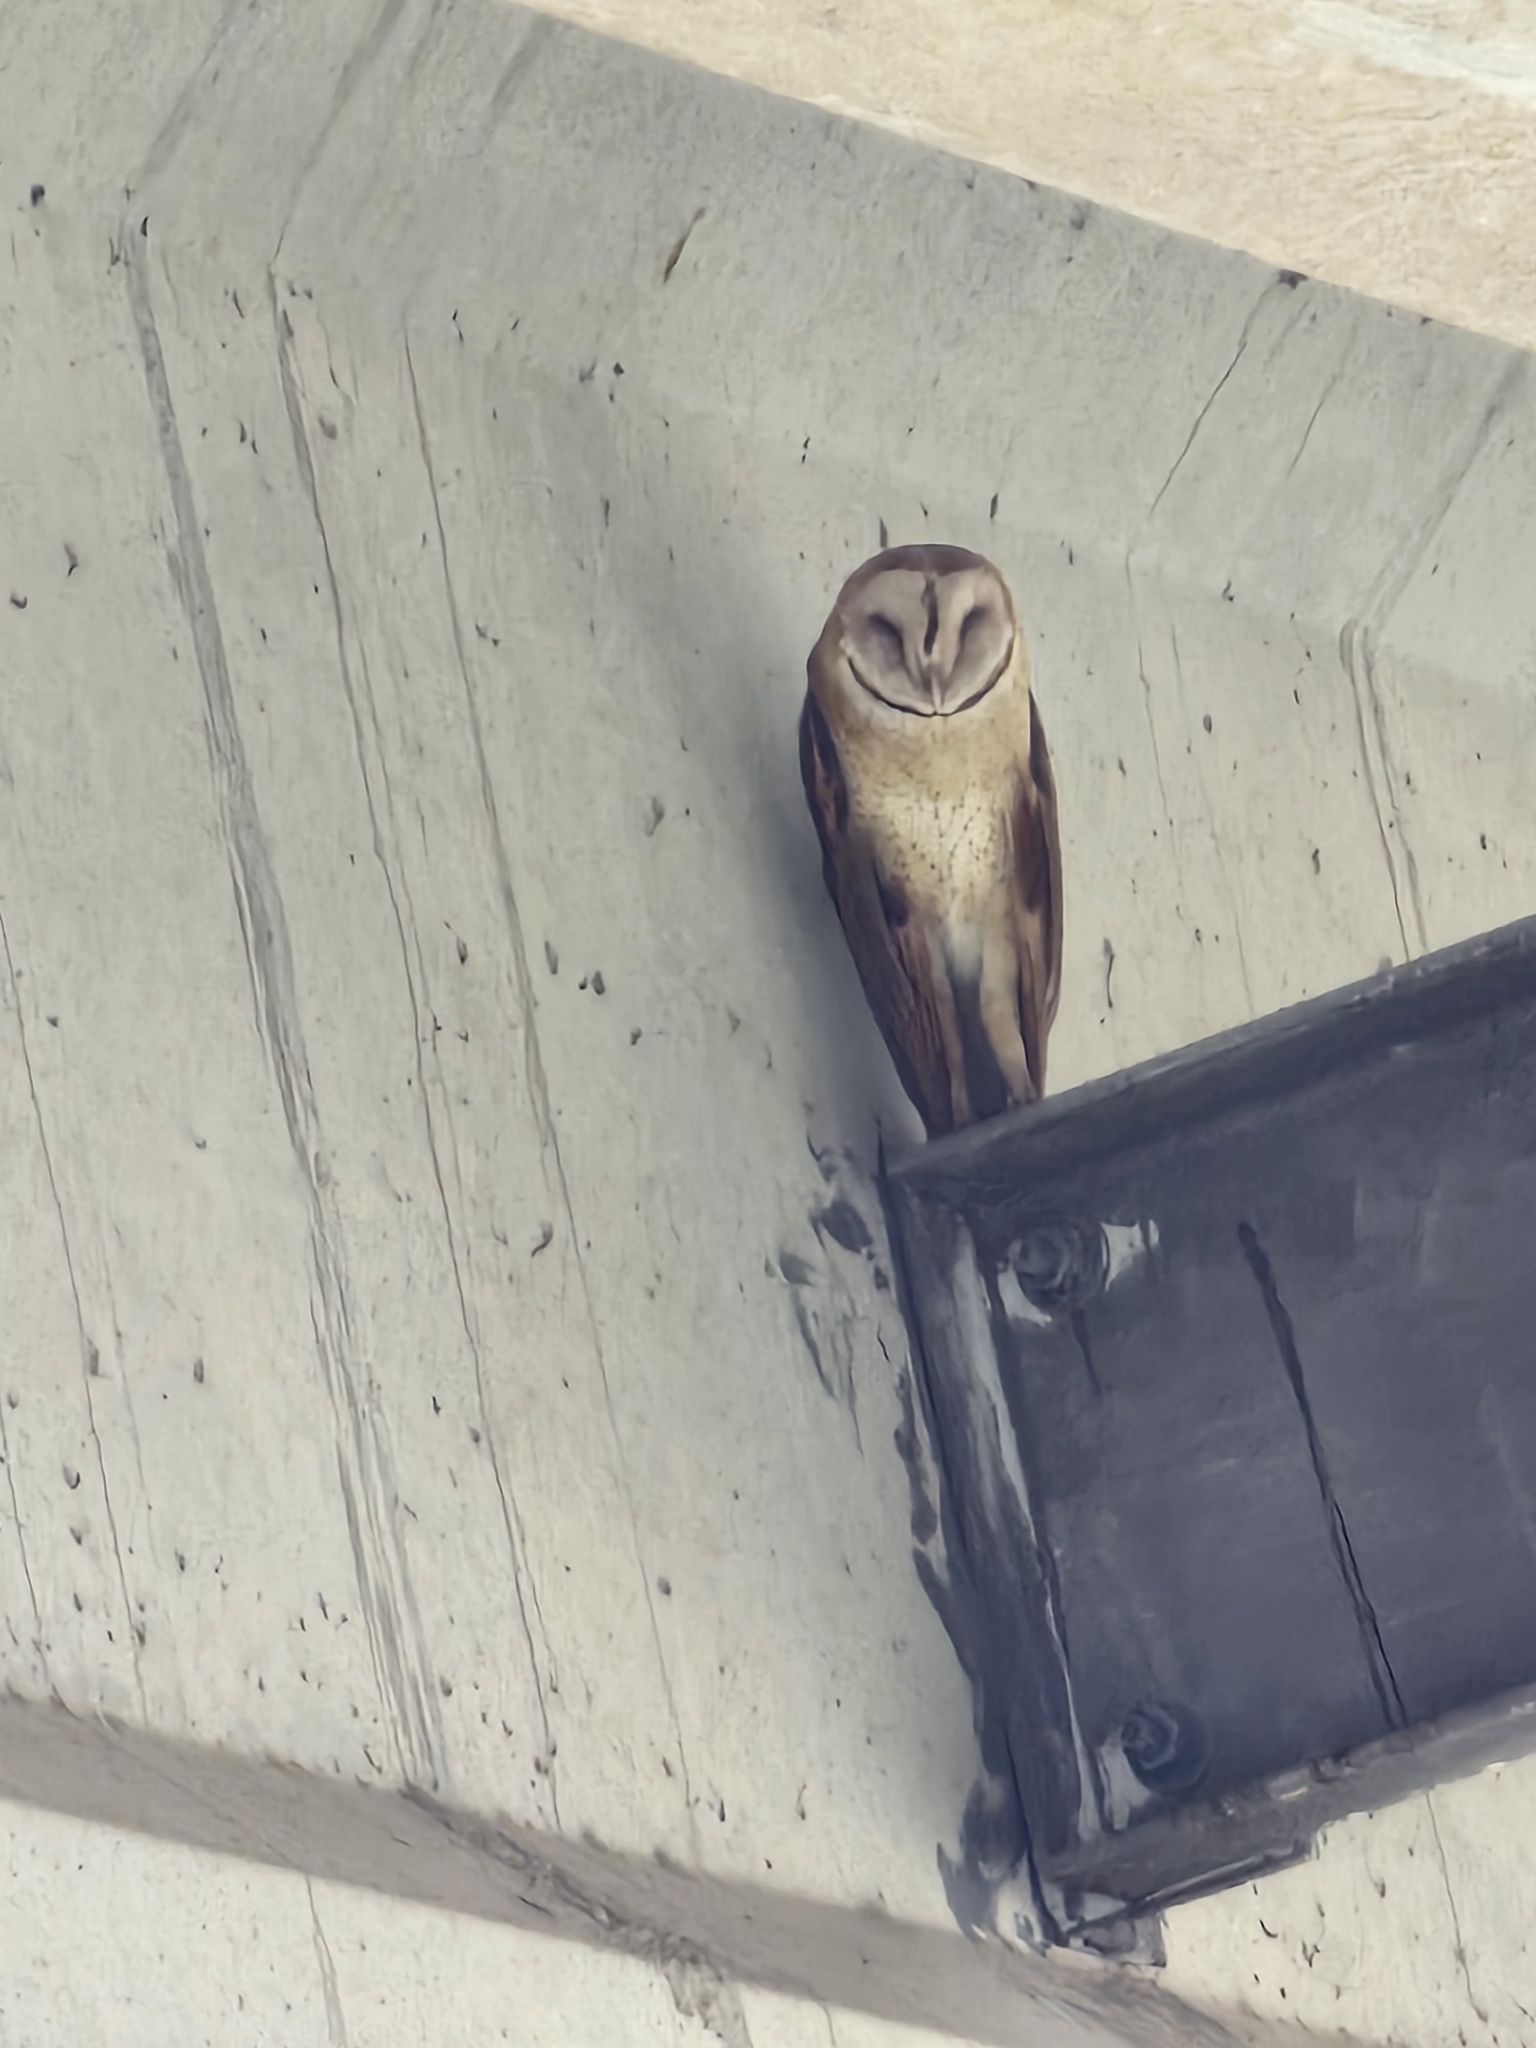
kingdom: Animalia
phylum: Chordata
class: Aves
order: Strigiformes
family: Tytonidae
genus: Tyto
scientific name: Tyto alba
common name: Barn owl
